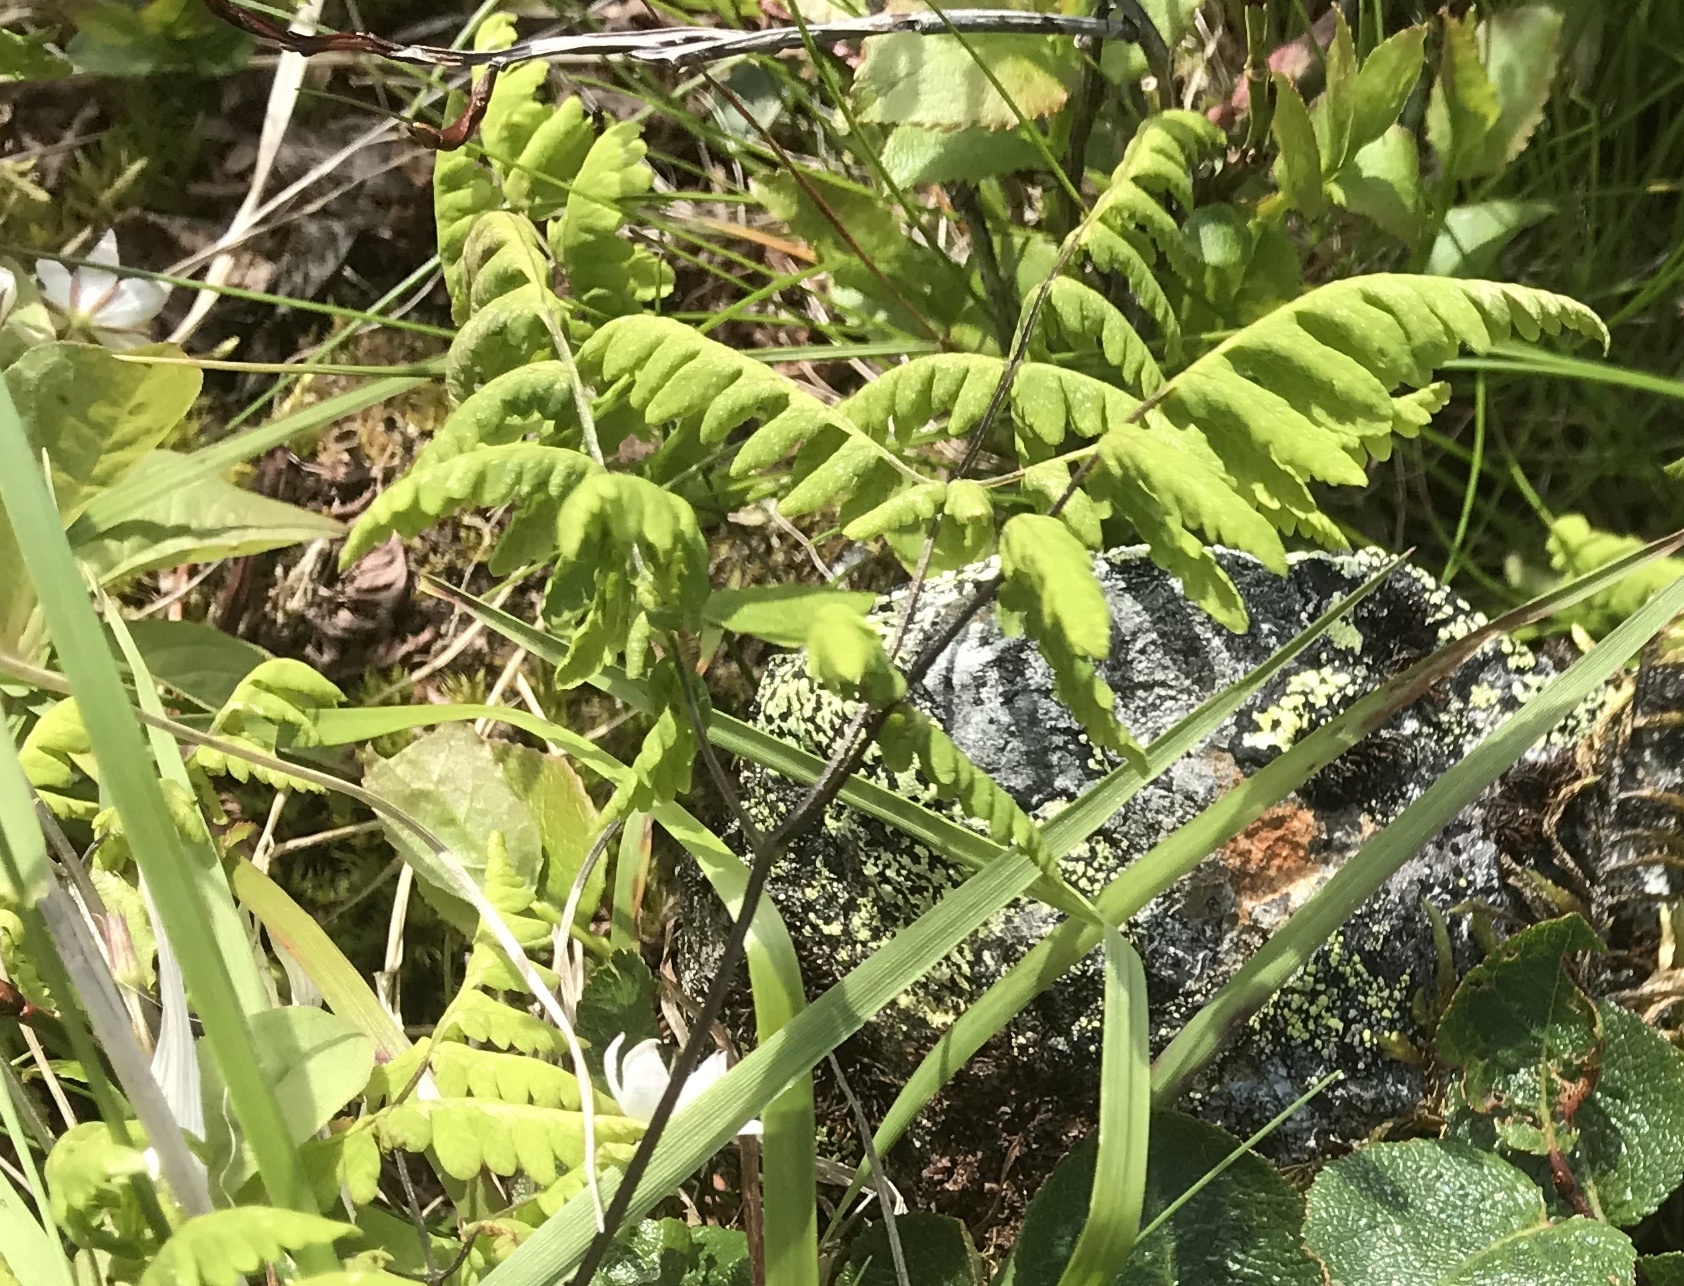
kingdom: Plantae
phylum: Tracheophyta
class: Polypodiopsida
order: Polypodiales
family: Cystopteridaceae
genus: Gymnocarpium
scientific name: Gymnocarpium dryopteris
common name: Oak fern
